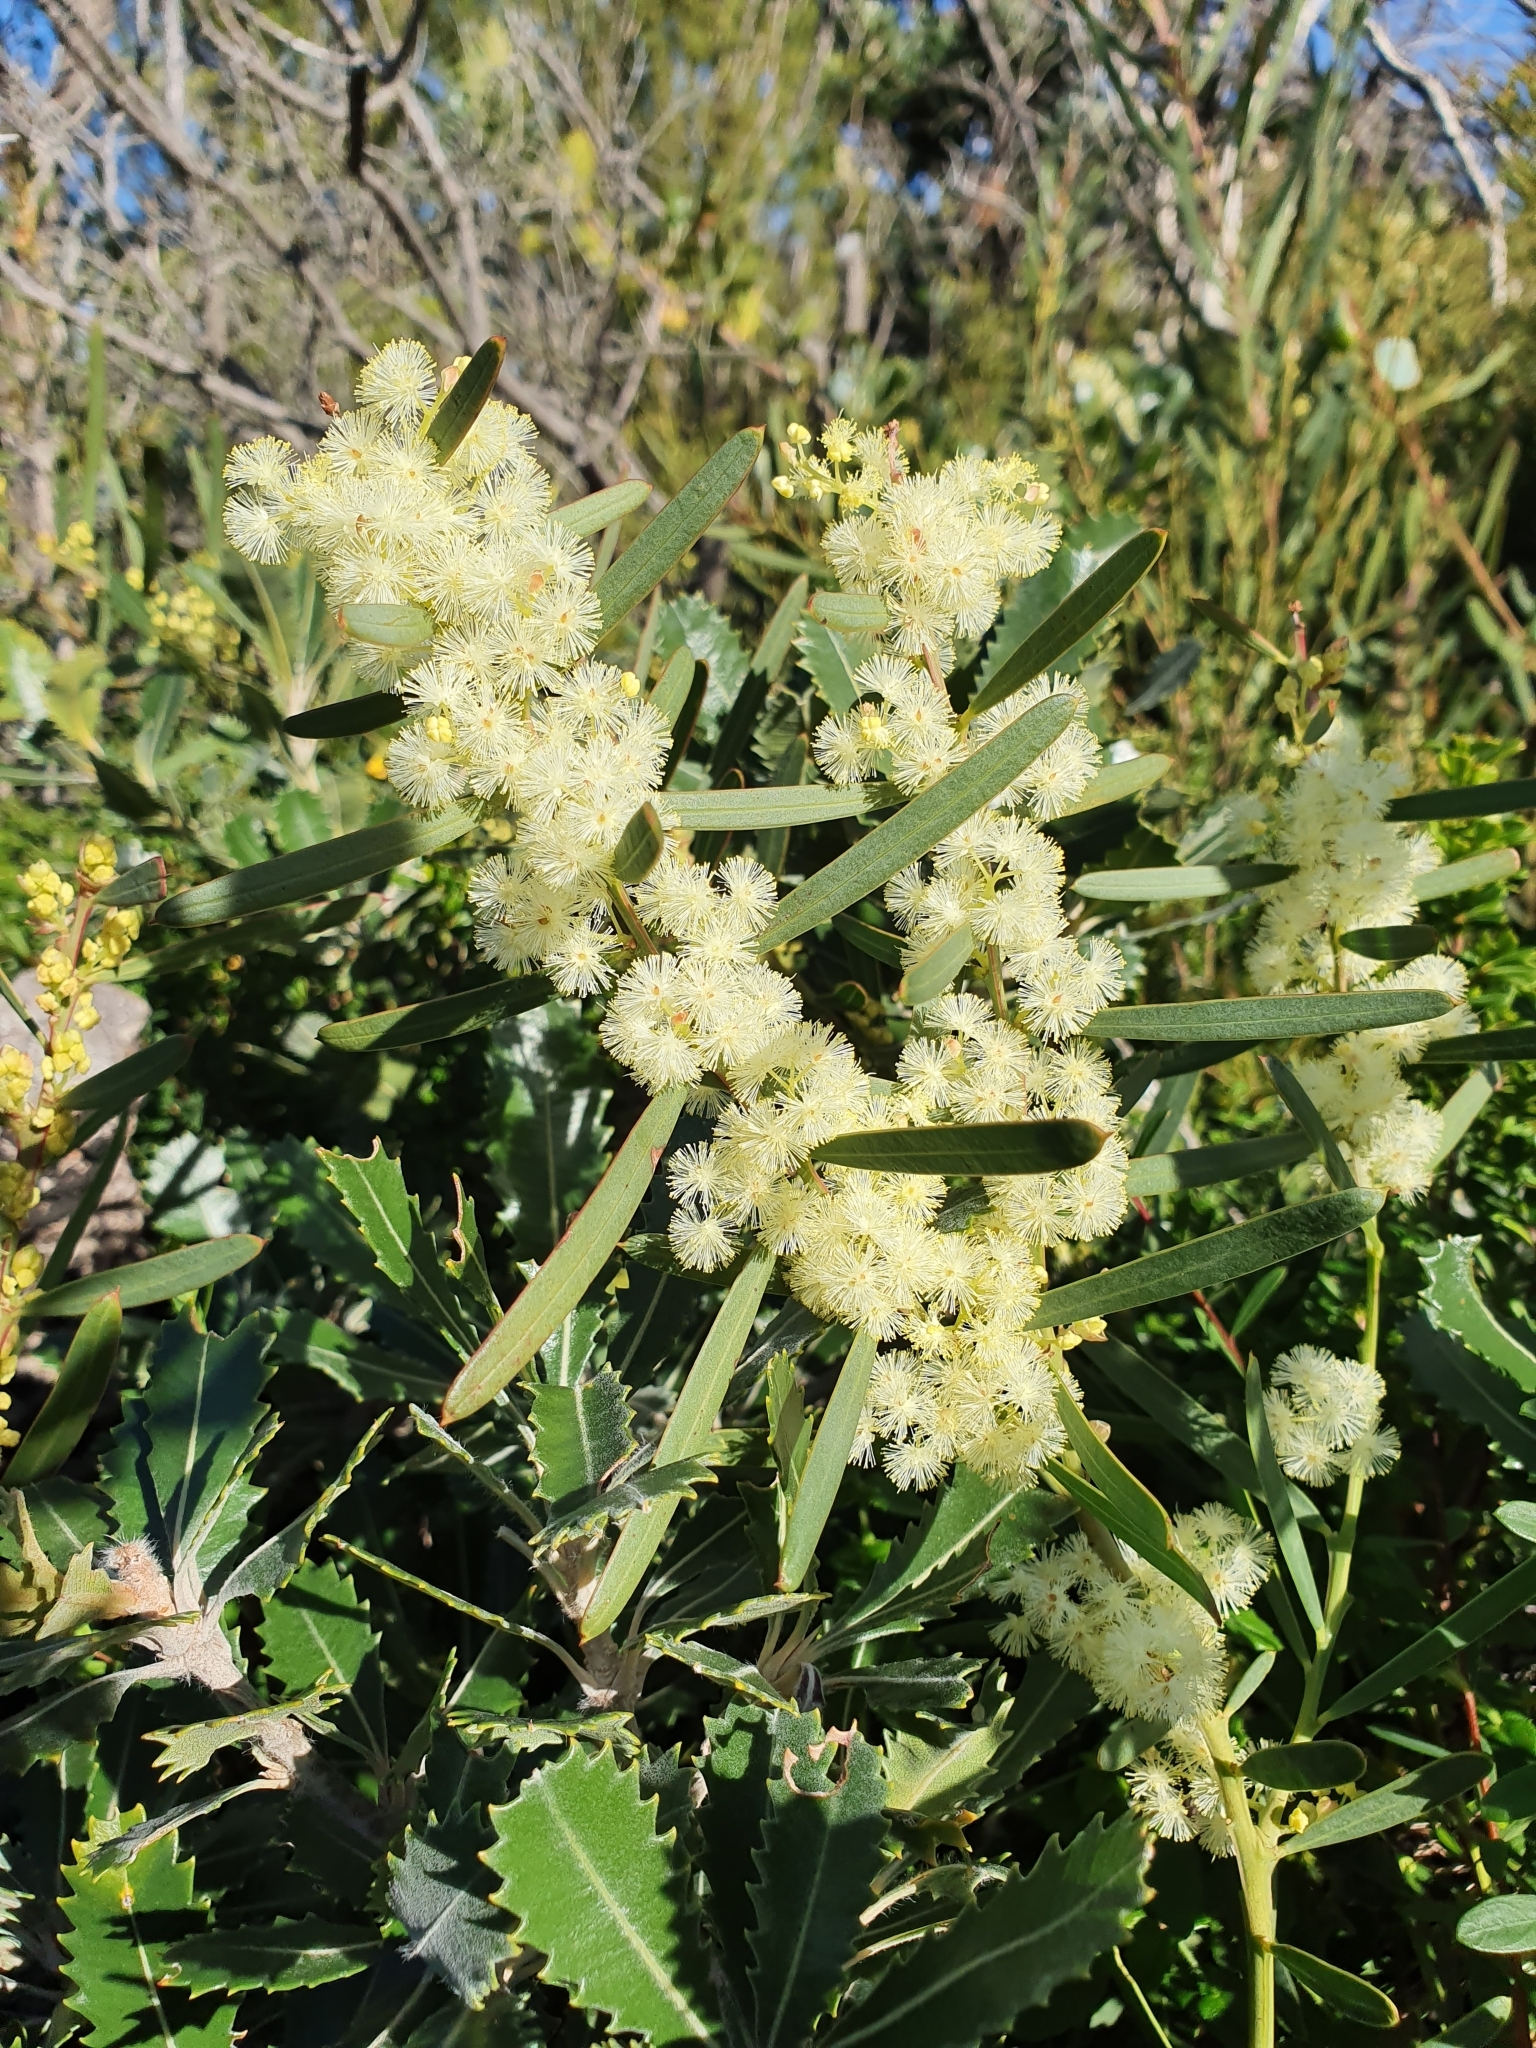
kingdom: Plantae
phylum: Tracheophyta
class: Magnoliopsida
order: Fabales
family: Fabaceae
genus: Acacia
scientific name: Acacia suaveolens
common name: Sweet acacia
